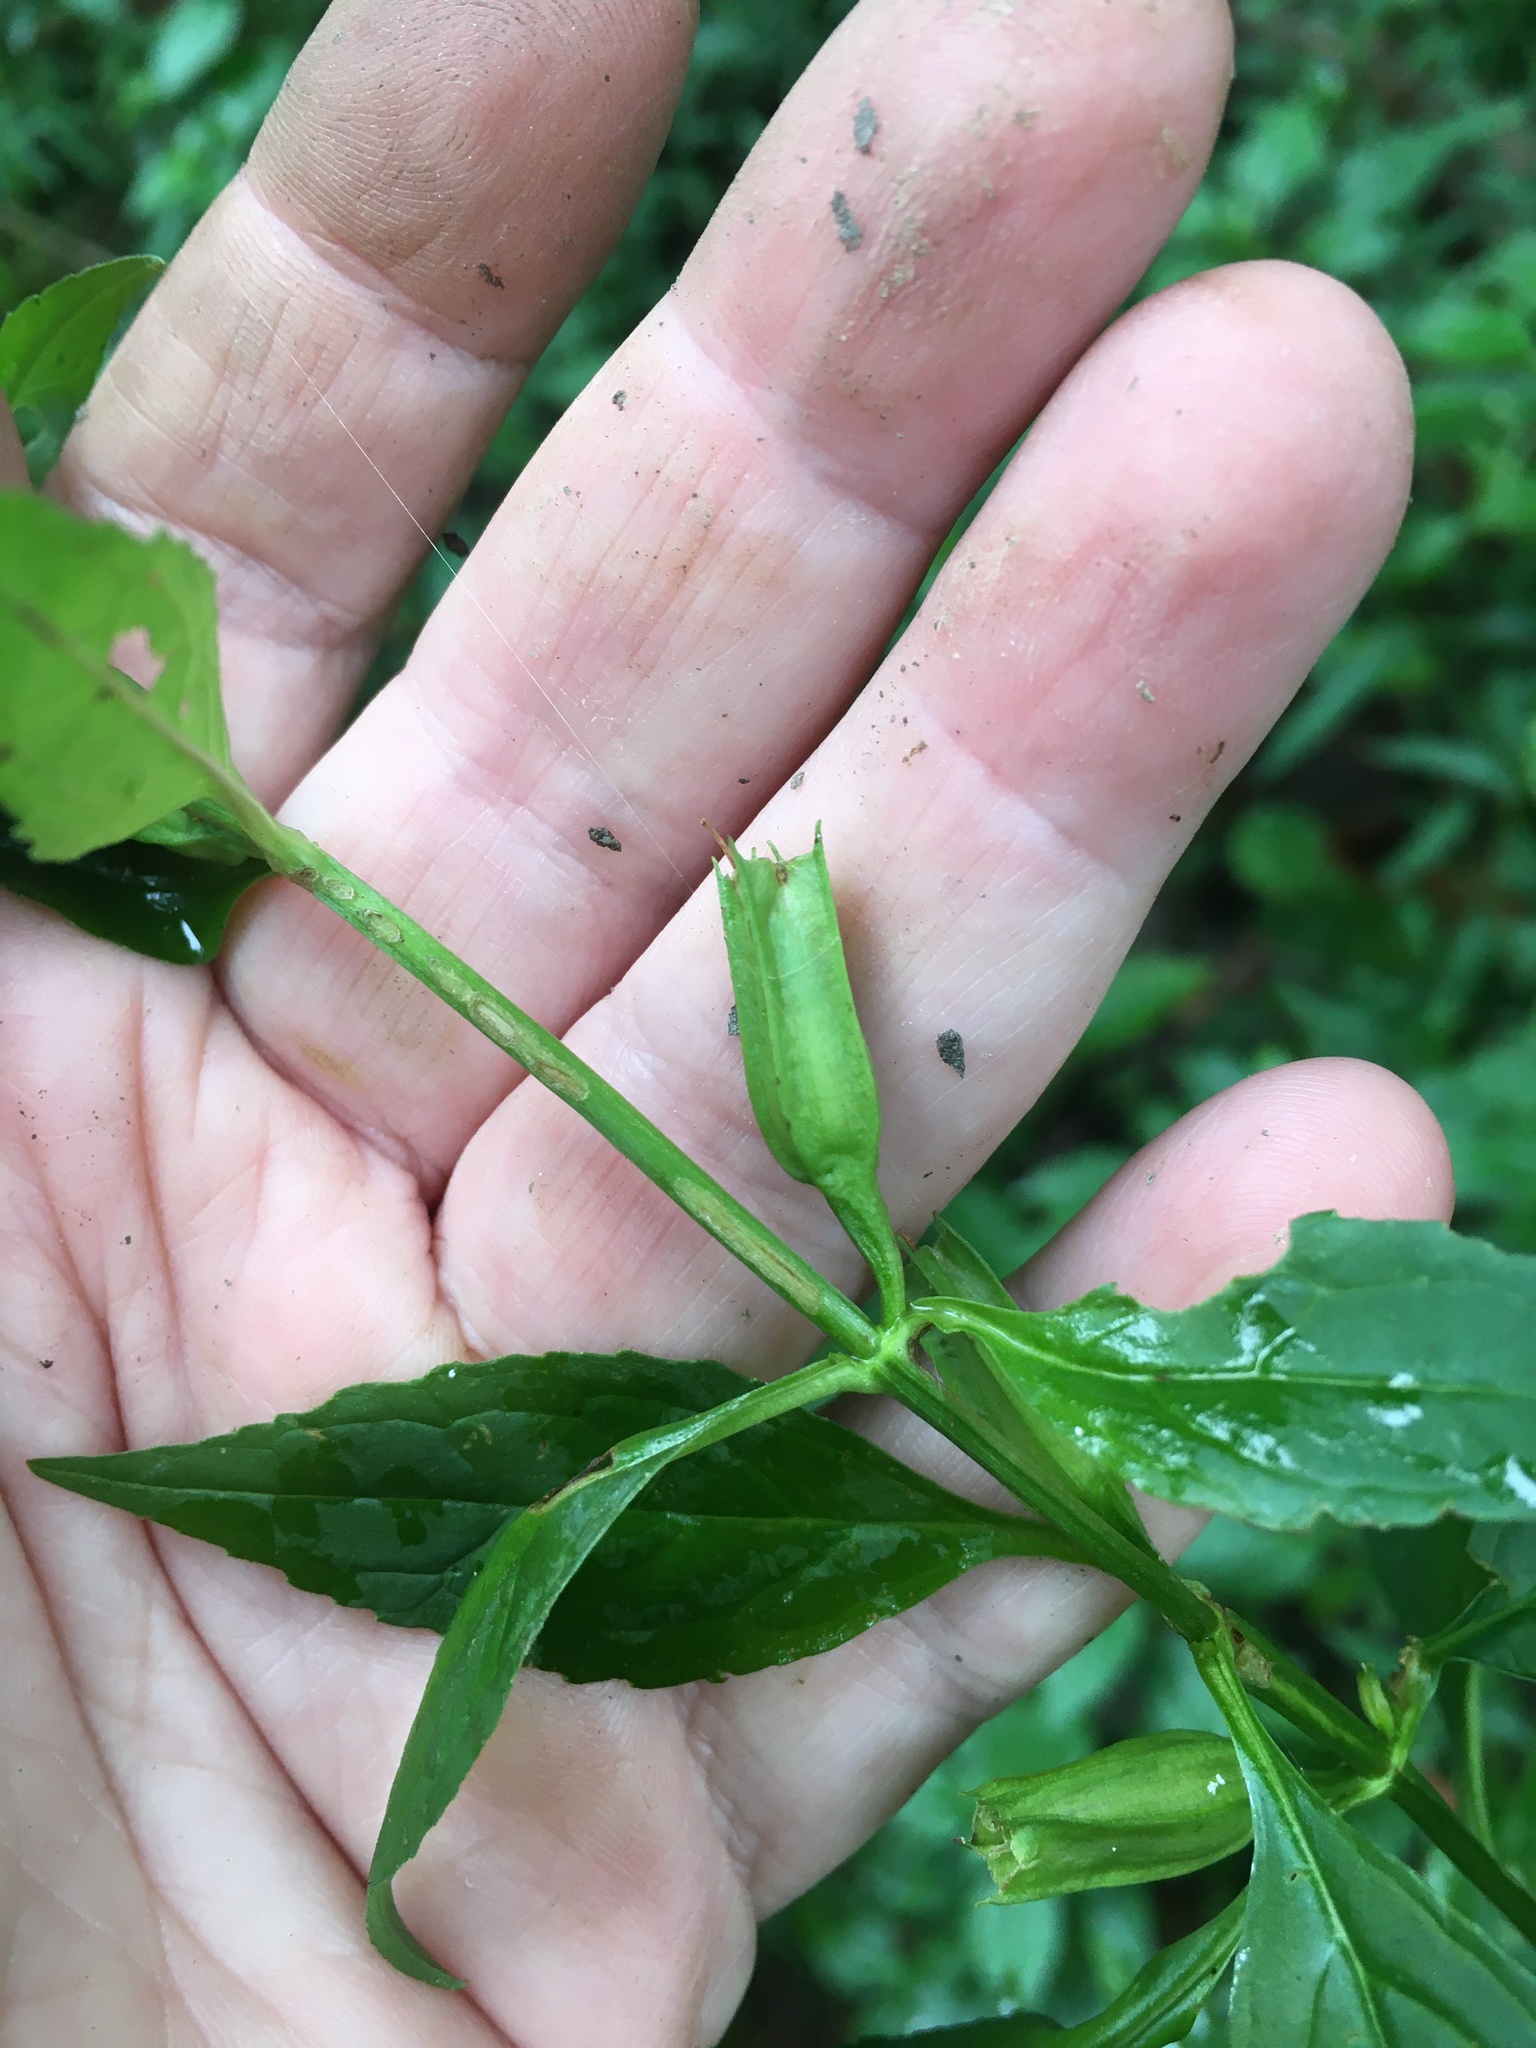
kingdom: Plantae
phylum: Tracheophyta
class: Magnoliopsida
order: Lamiales
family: Phrymaceae
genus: Mimulus
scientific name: Mimulus alatus
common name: Sharp-wing monkey-flower
